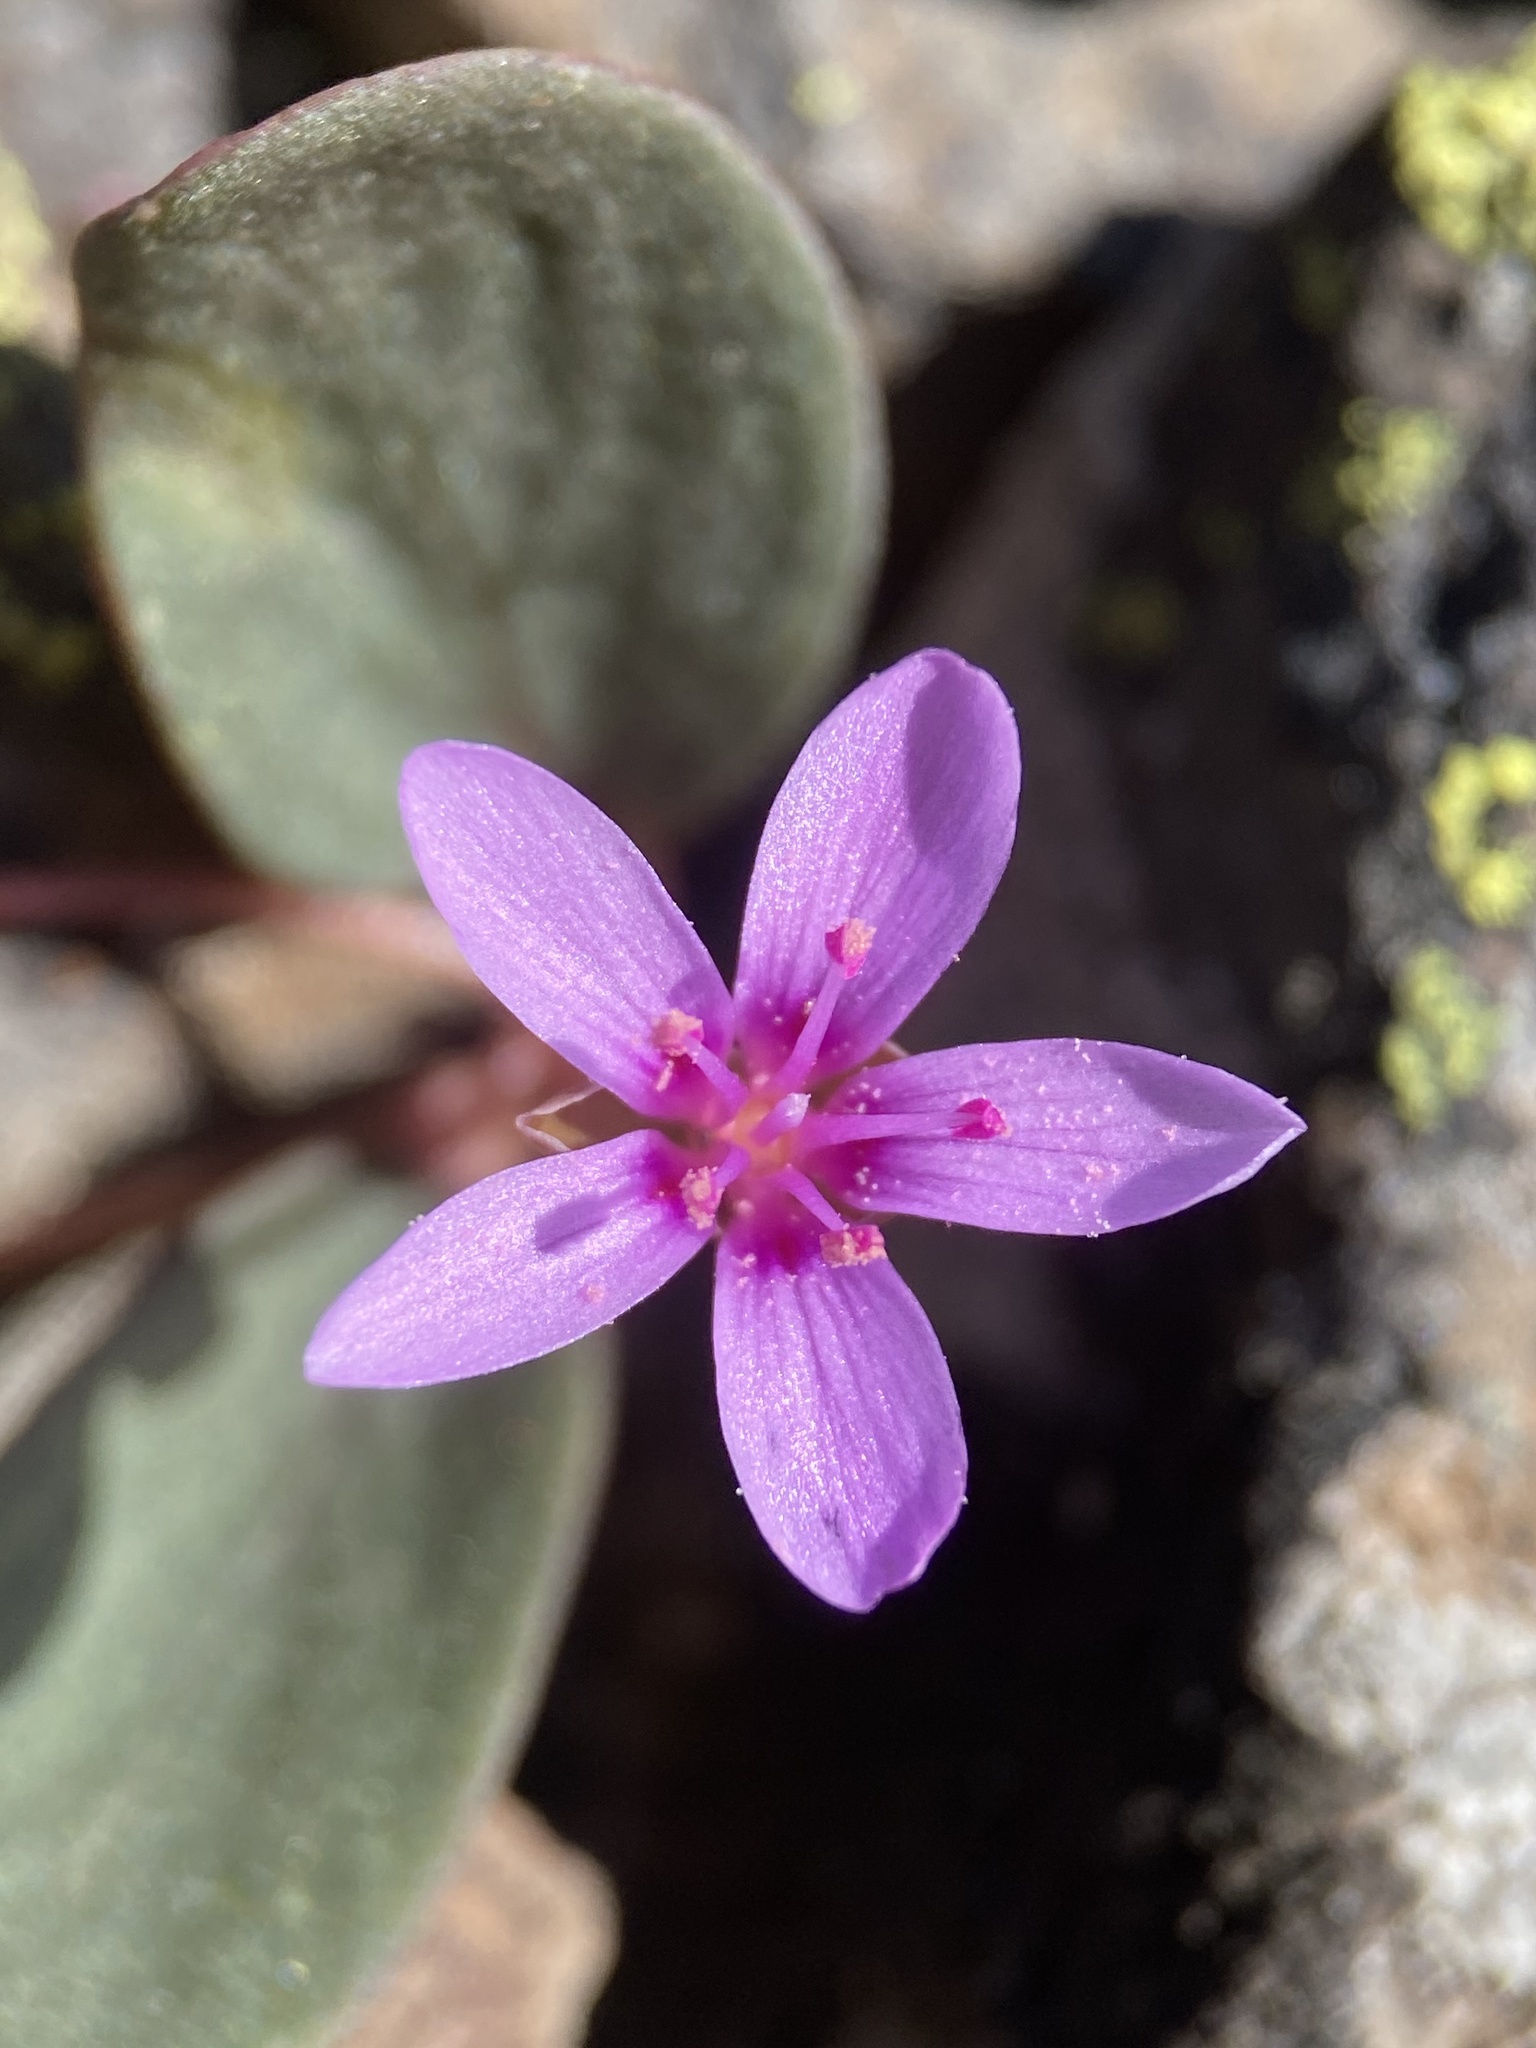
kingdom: Plantae
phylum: Tracheophyta
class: Magnoliopsida
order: Caryophyllales
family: Montiaceae
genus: Claytonia
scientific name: Claytonia umbellata
